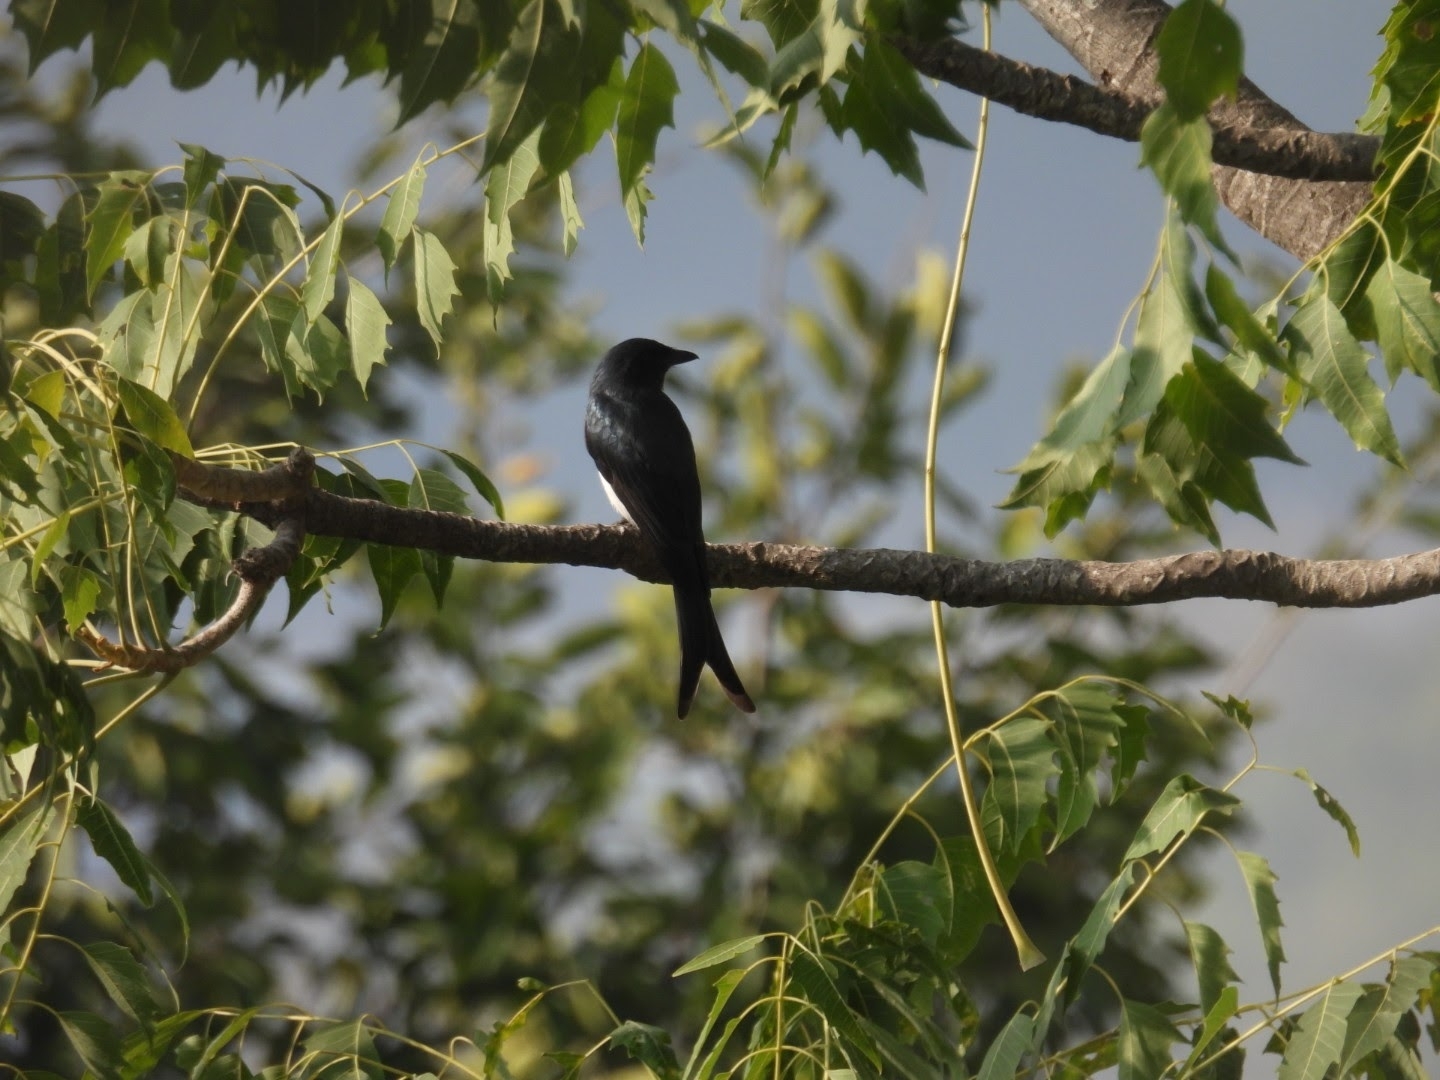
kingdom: Animalia
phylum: Chordata
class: Aves
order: Passeriformes
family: Dicruridae
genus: Dicrurus
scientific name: Dicrurus caerulescens
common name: White-bellied drongo
